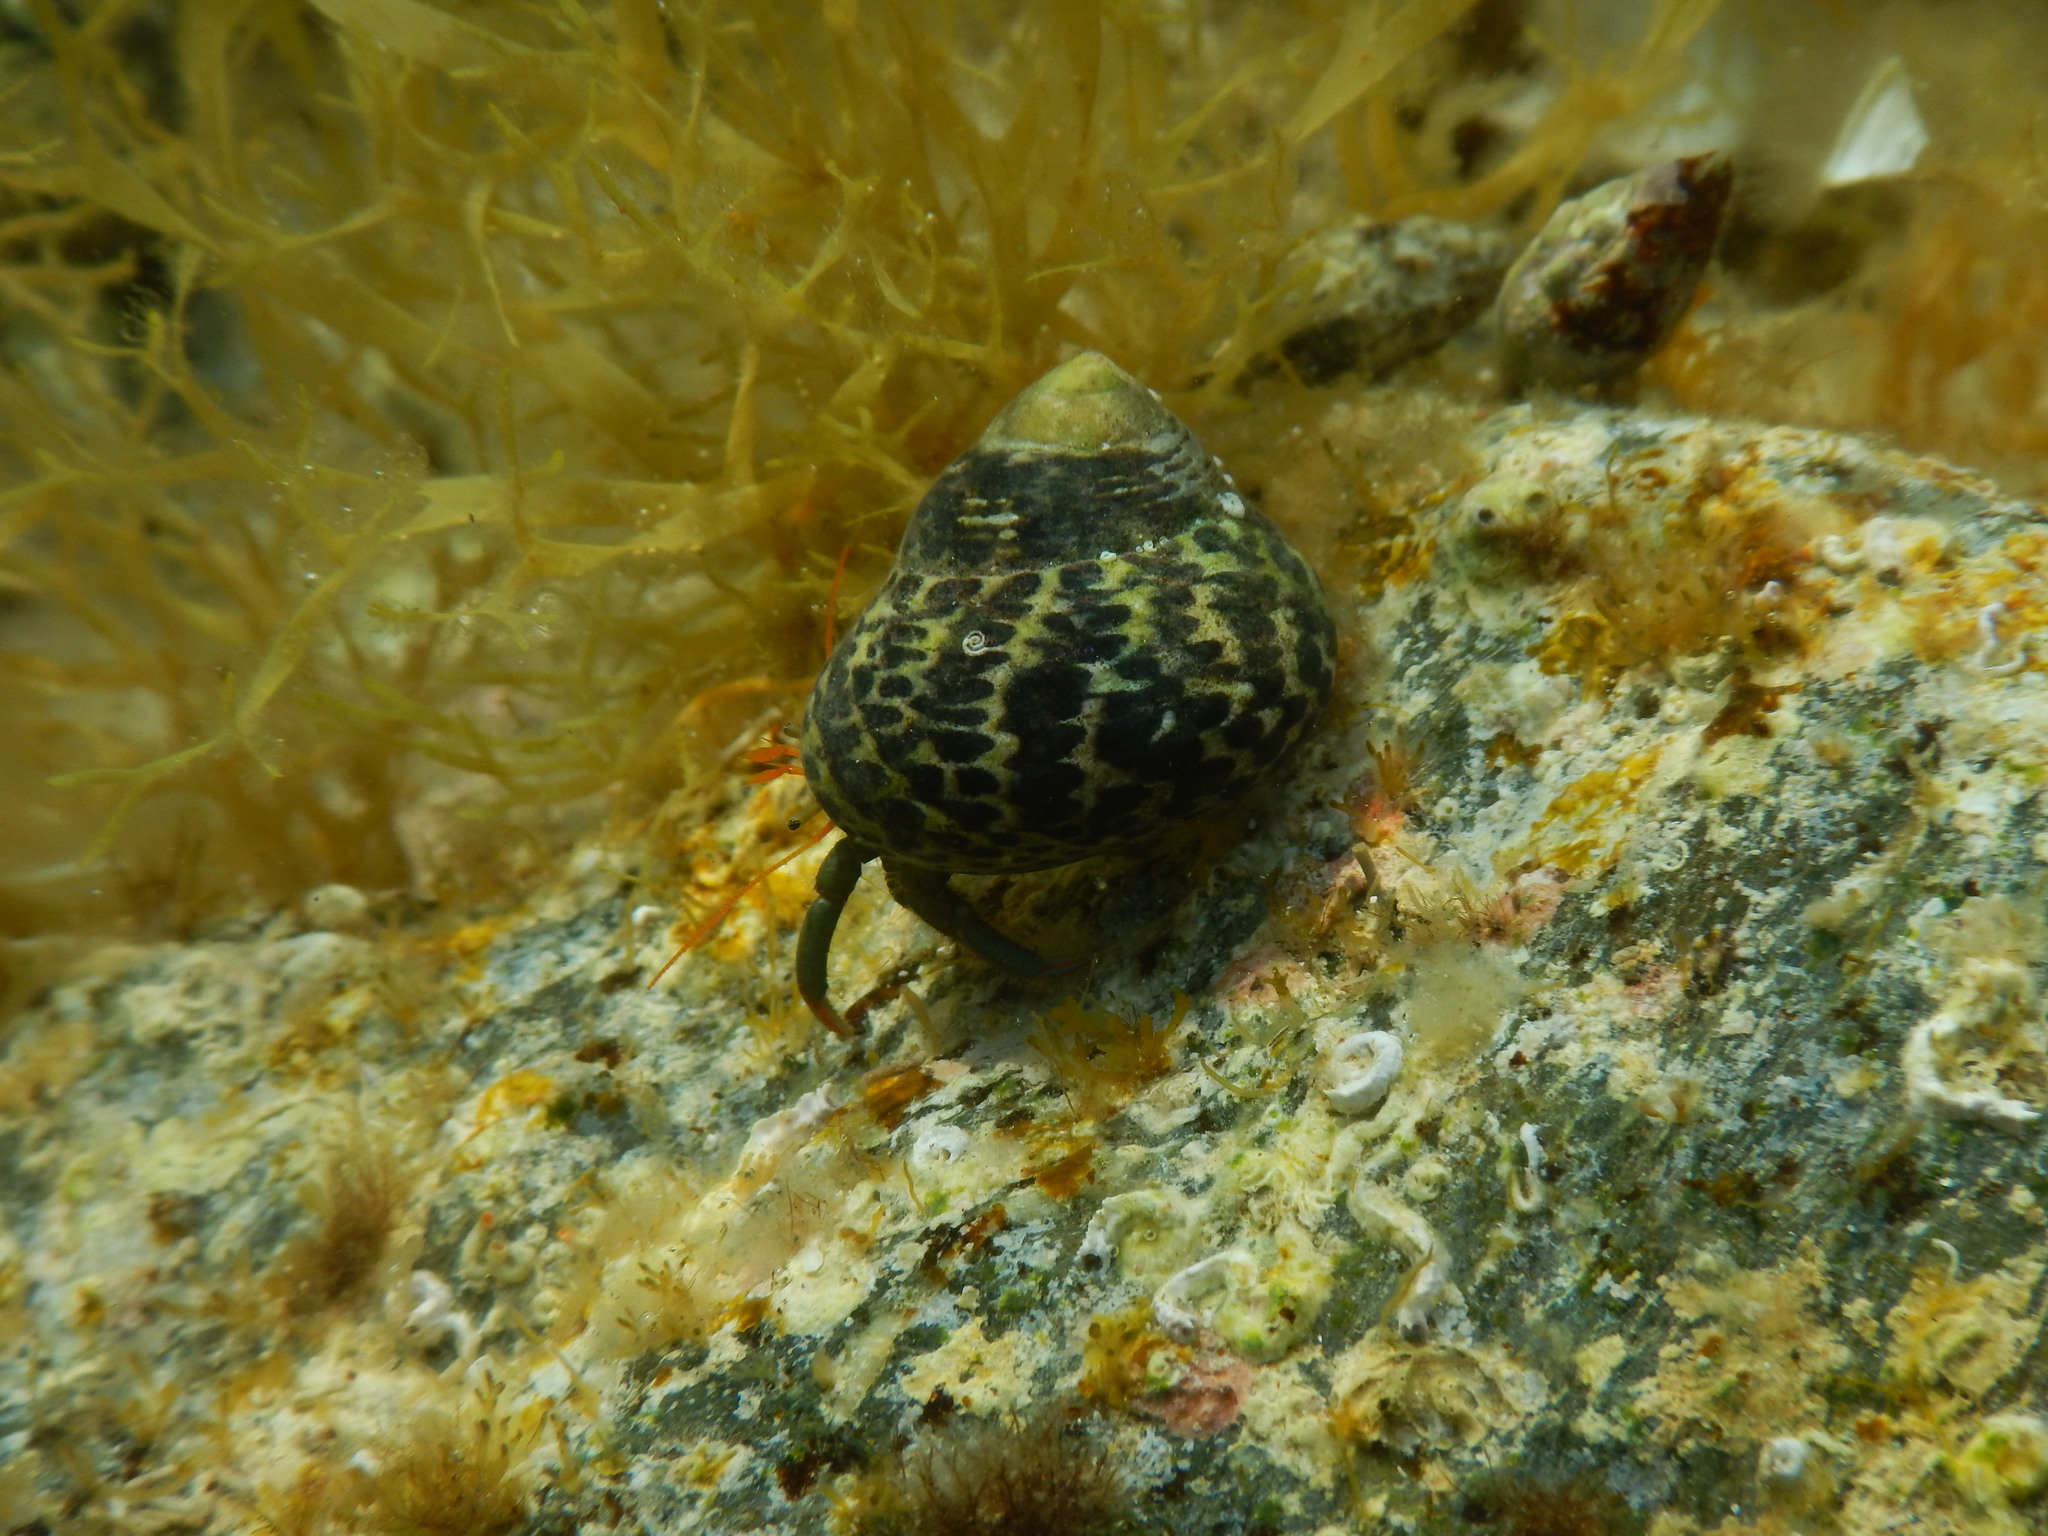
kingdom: Animalia
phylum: Arthropoda
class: Malacostraca
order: Decapoda
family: Diogenidae
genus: Clibanarius
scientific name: Clibanarius erythropus
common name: Hermit crab
